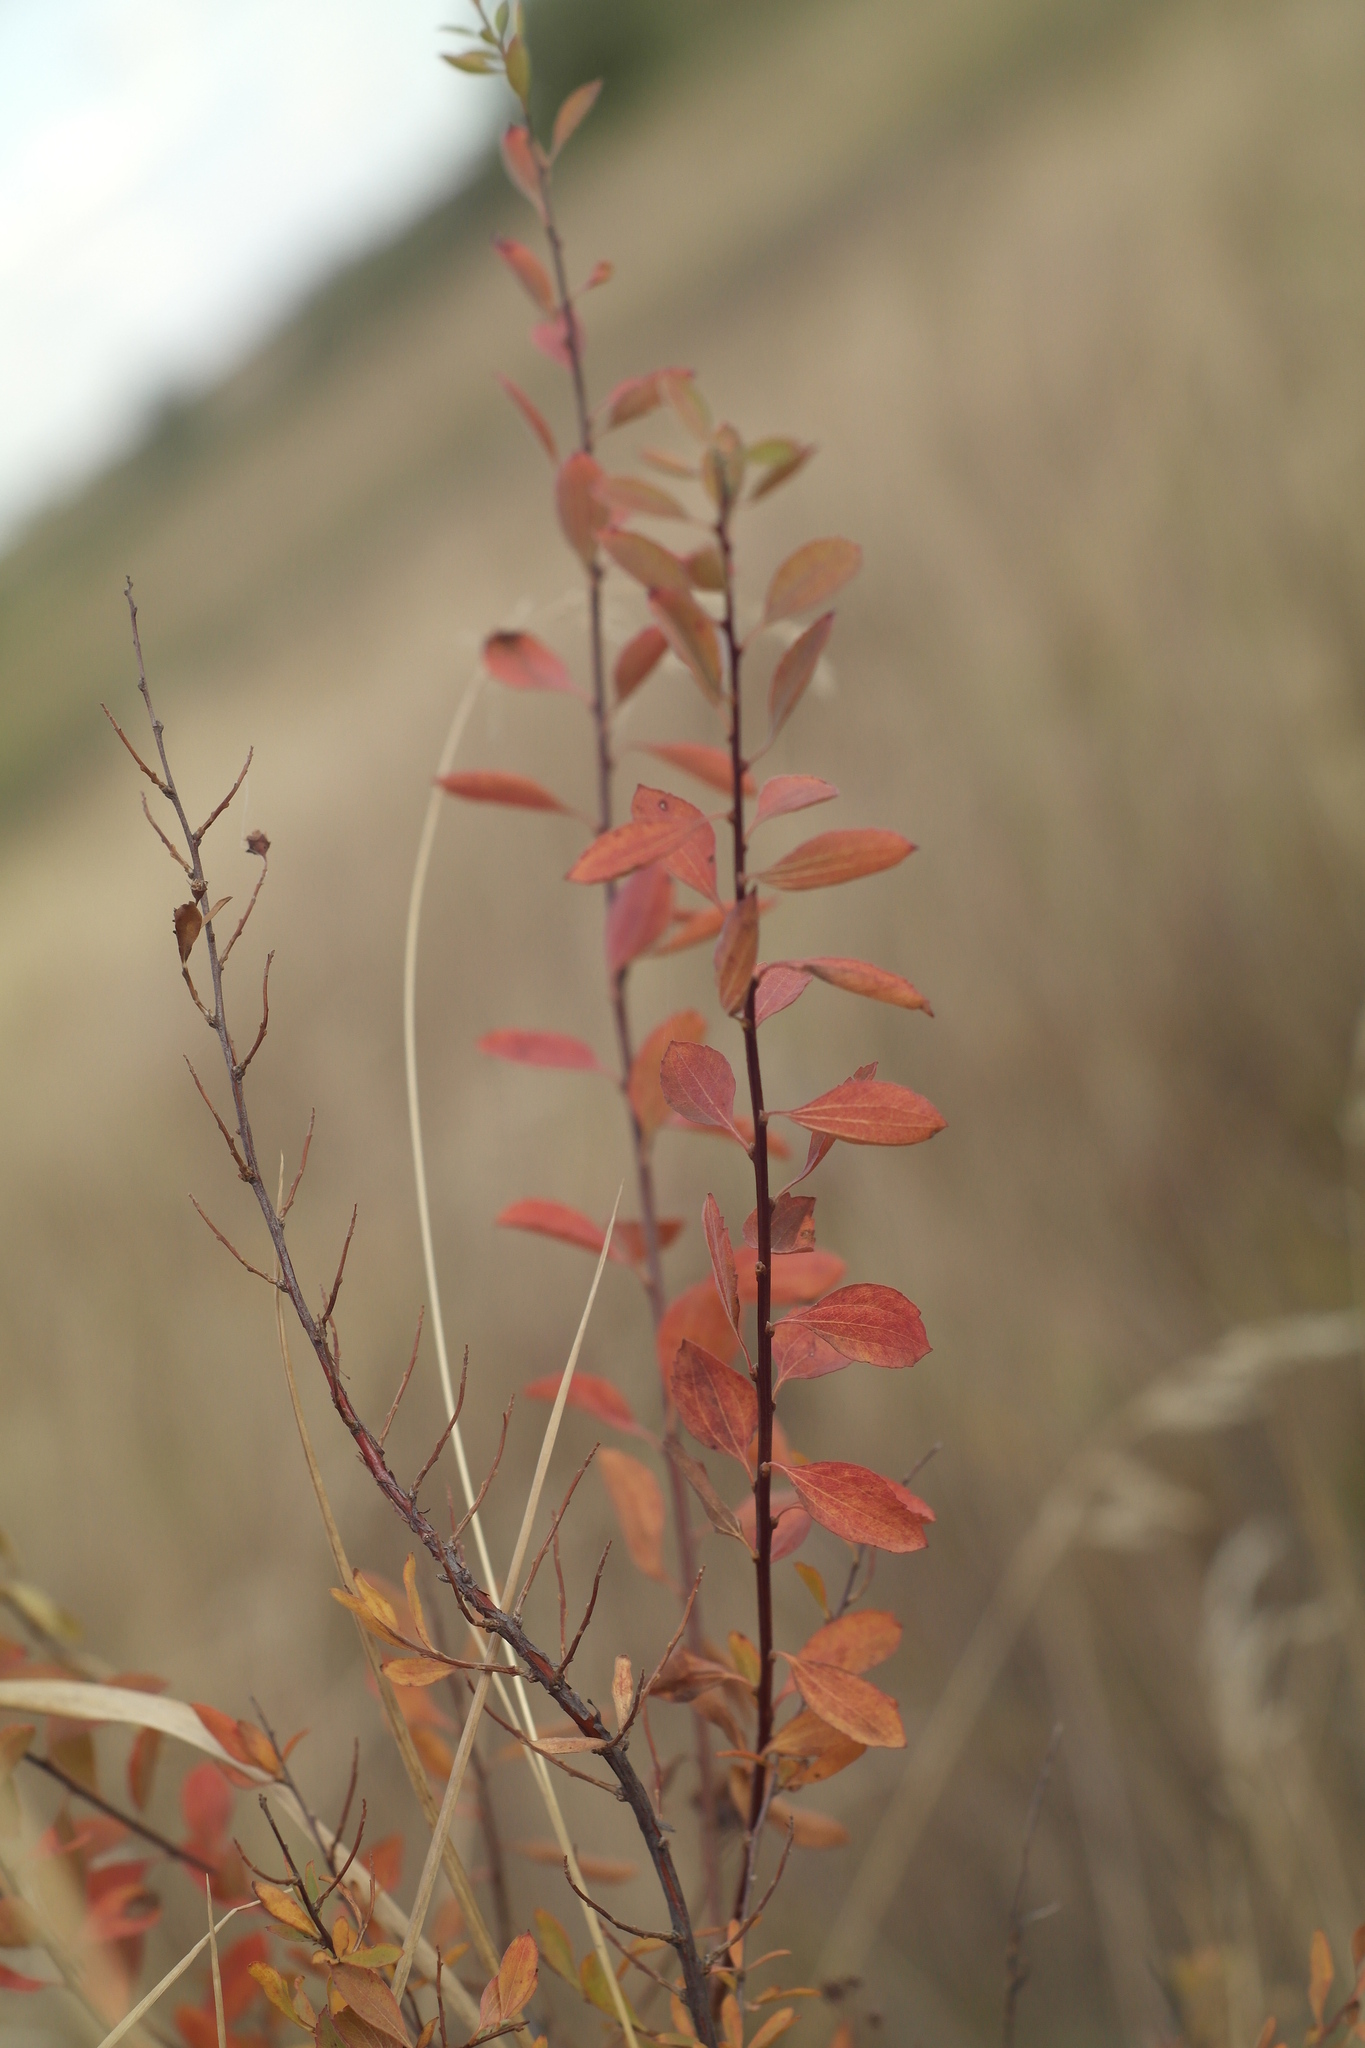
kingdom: Plantae
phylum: Tracheophyta
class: Magnoliopsida
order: Rosales
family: Rosaceae
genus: Spiraea
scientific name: Spiraea crenata
